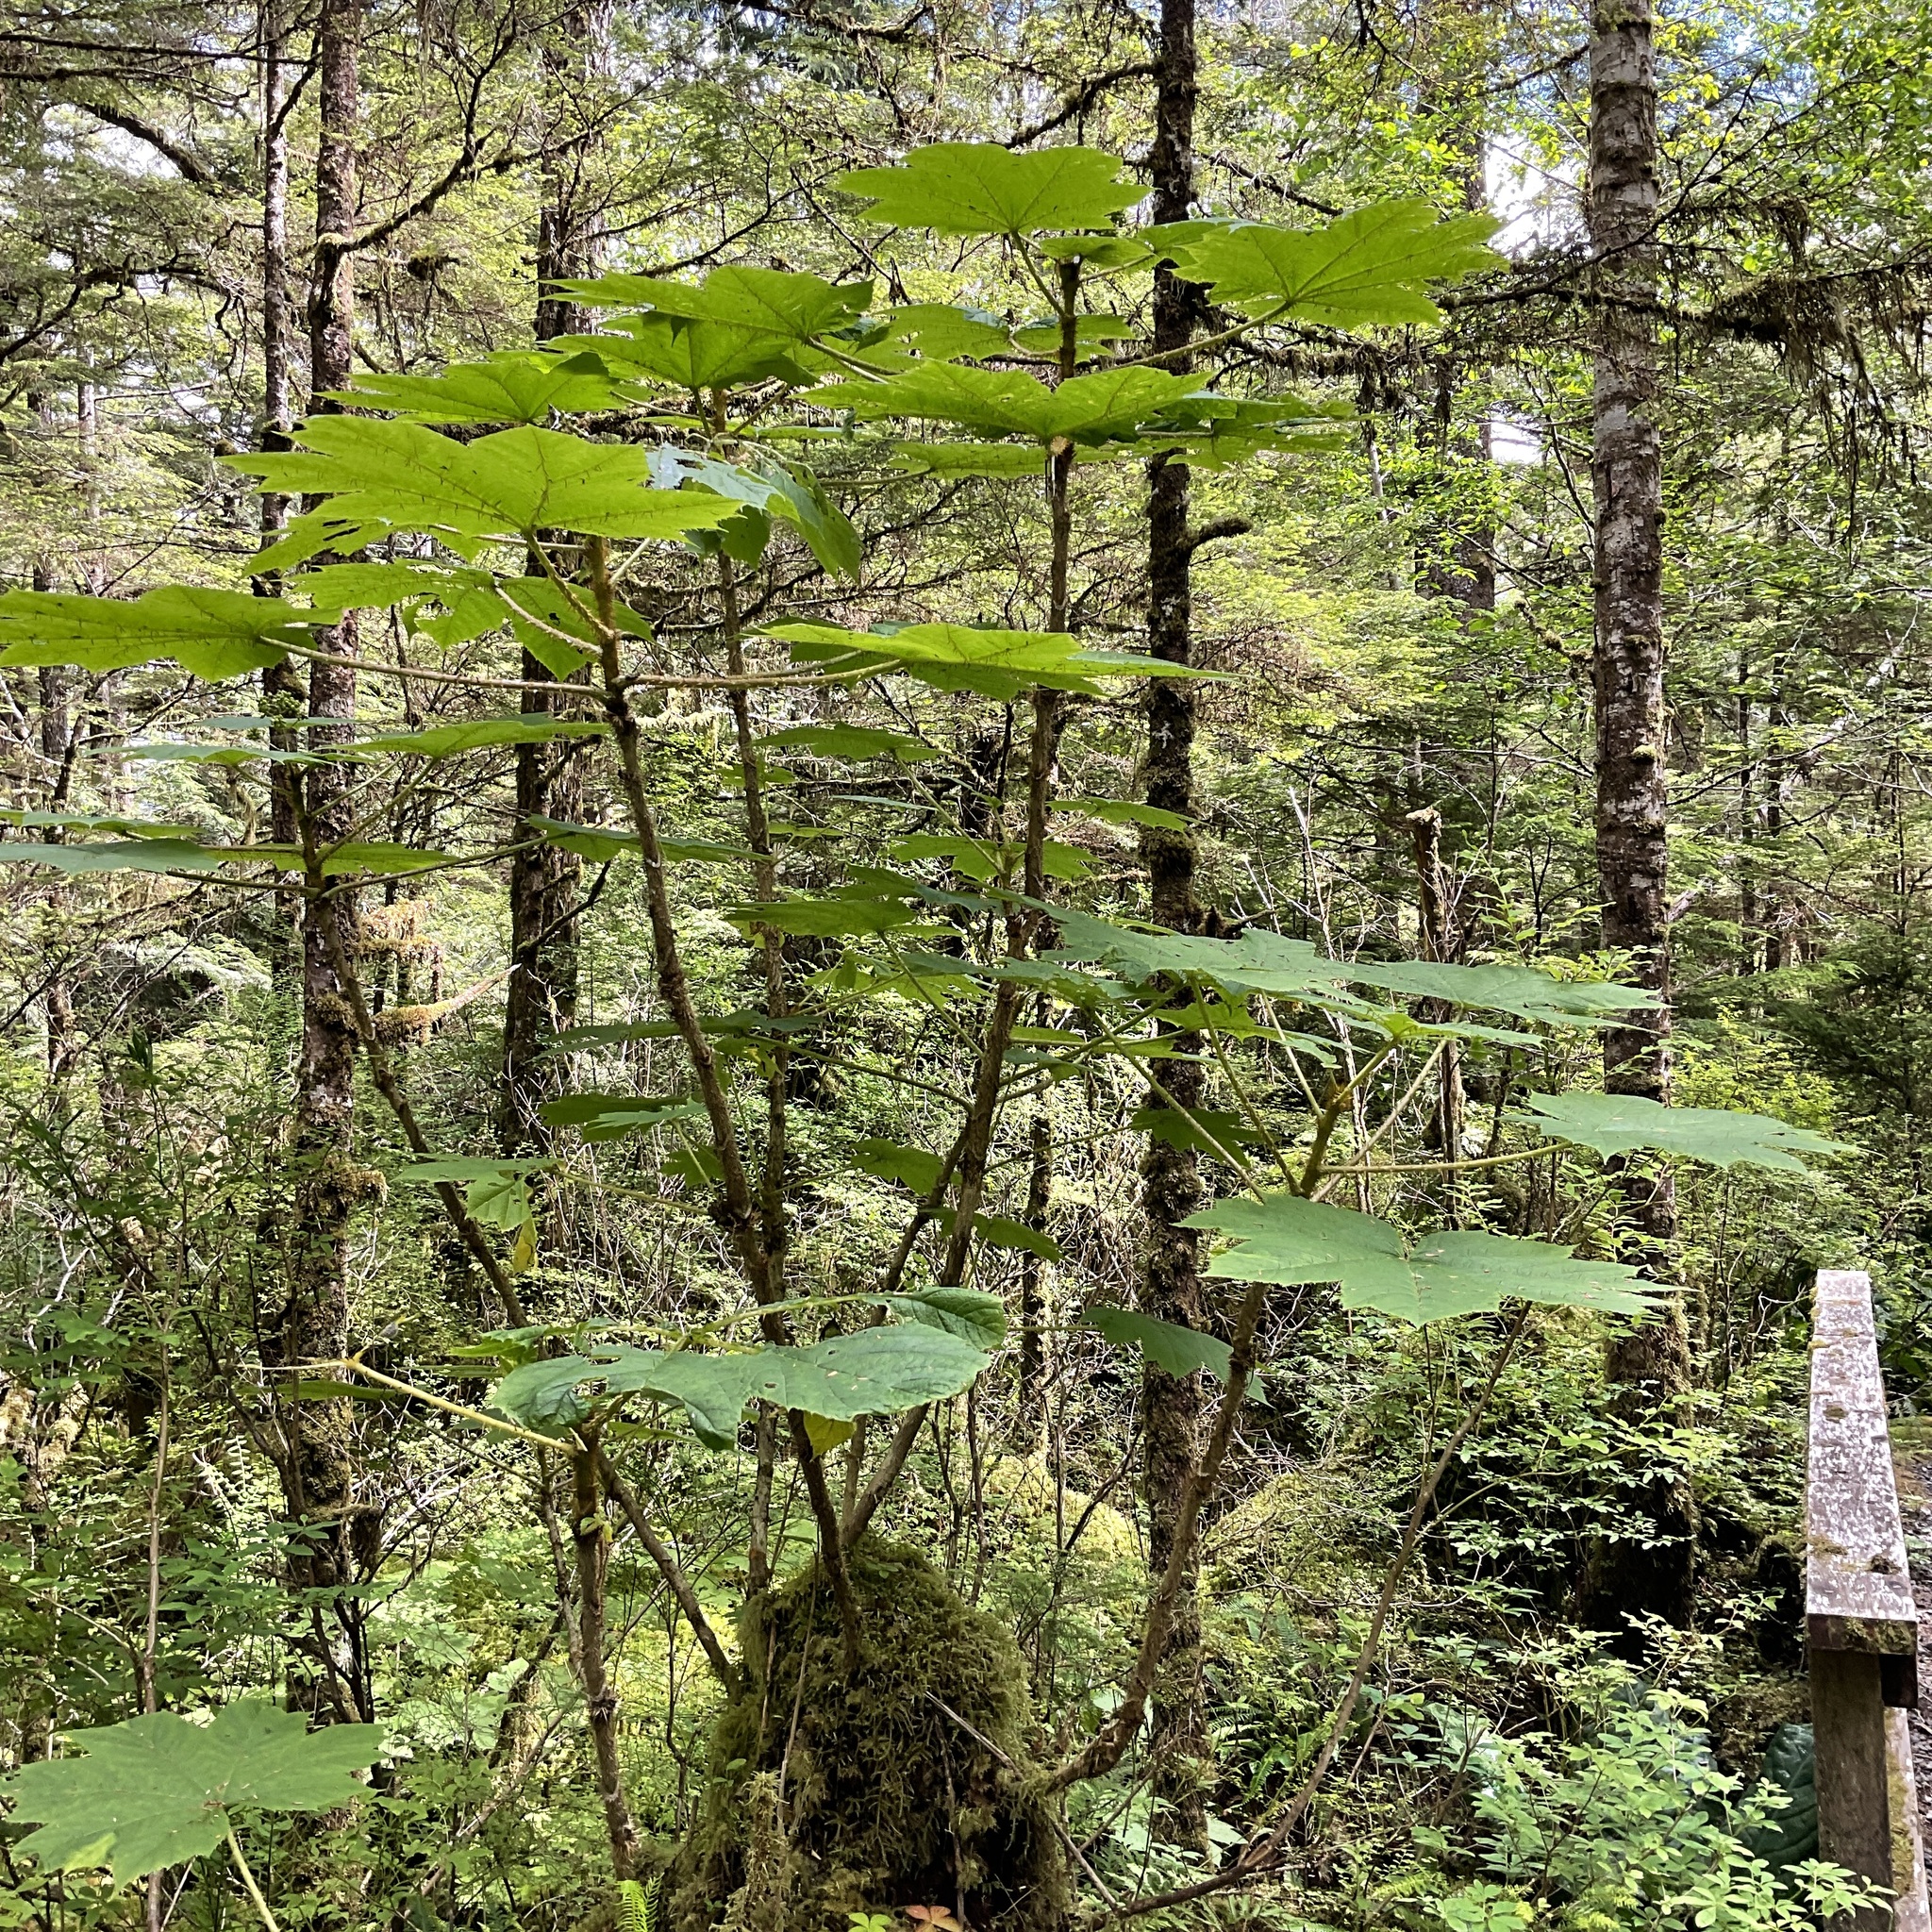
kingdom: Plantae
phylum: Tracheophyta
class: Magnoliopsida
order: Apiales
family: Araliaceae
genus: Oplopanax
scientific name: Oplopanax horridus
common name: Devil's walking-stick
